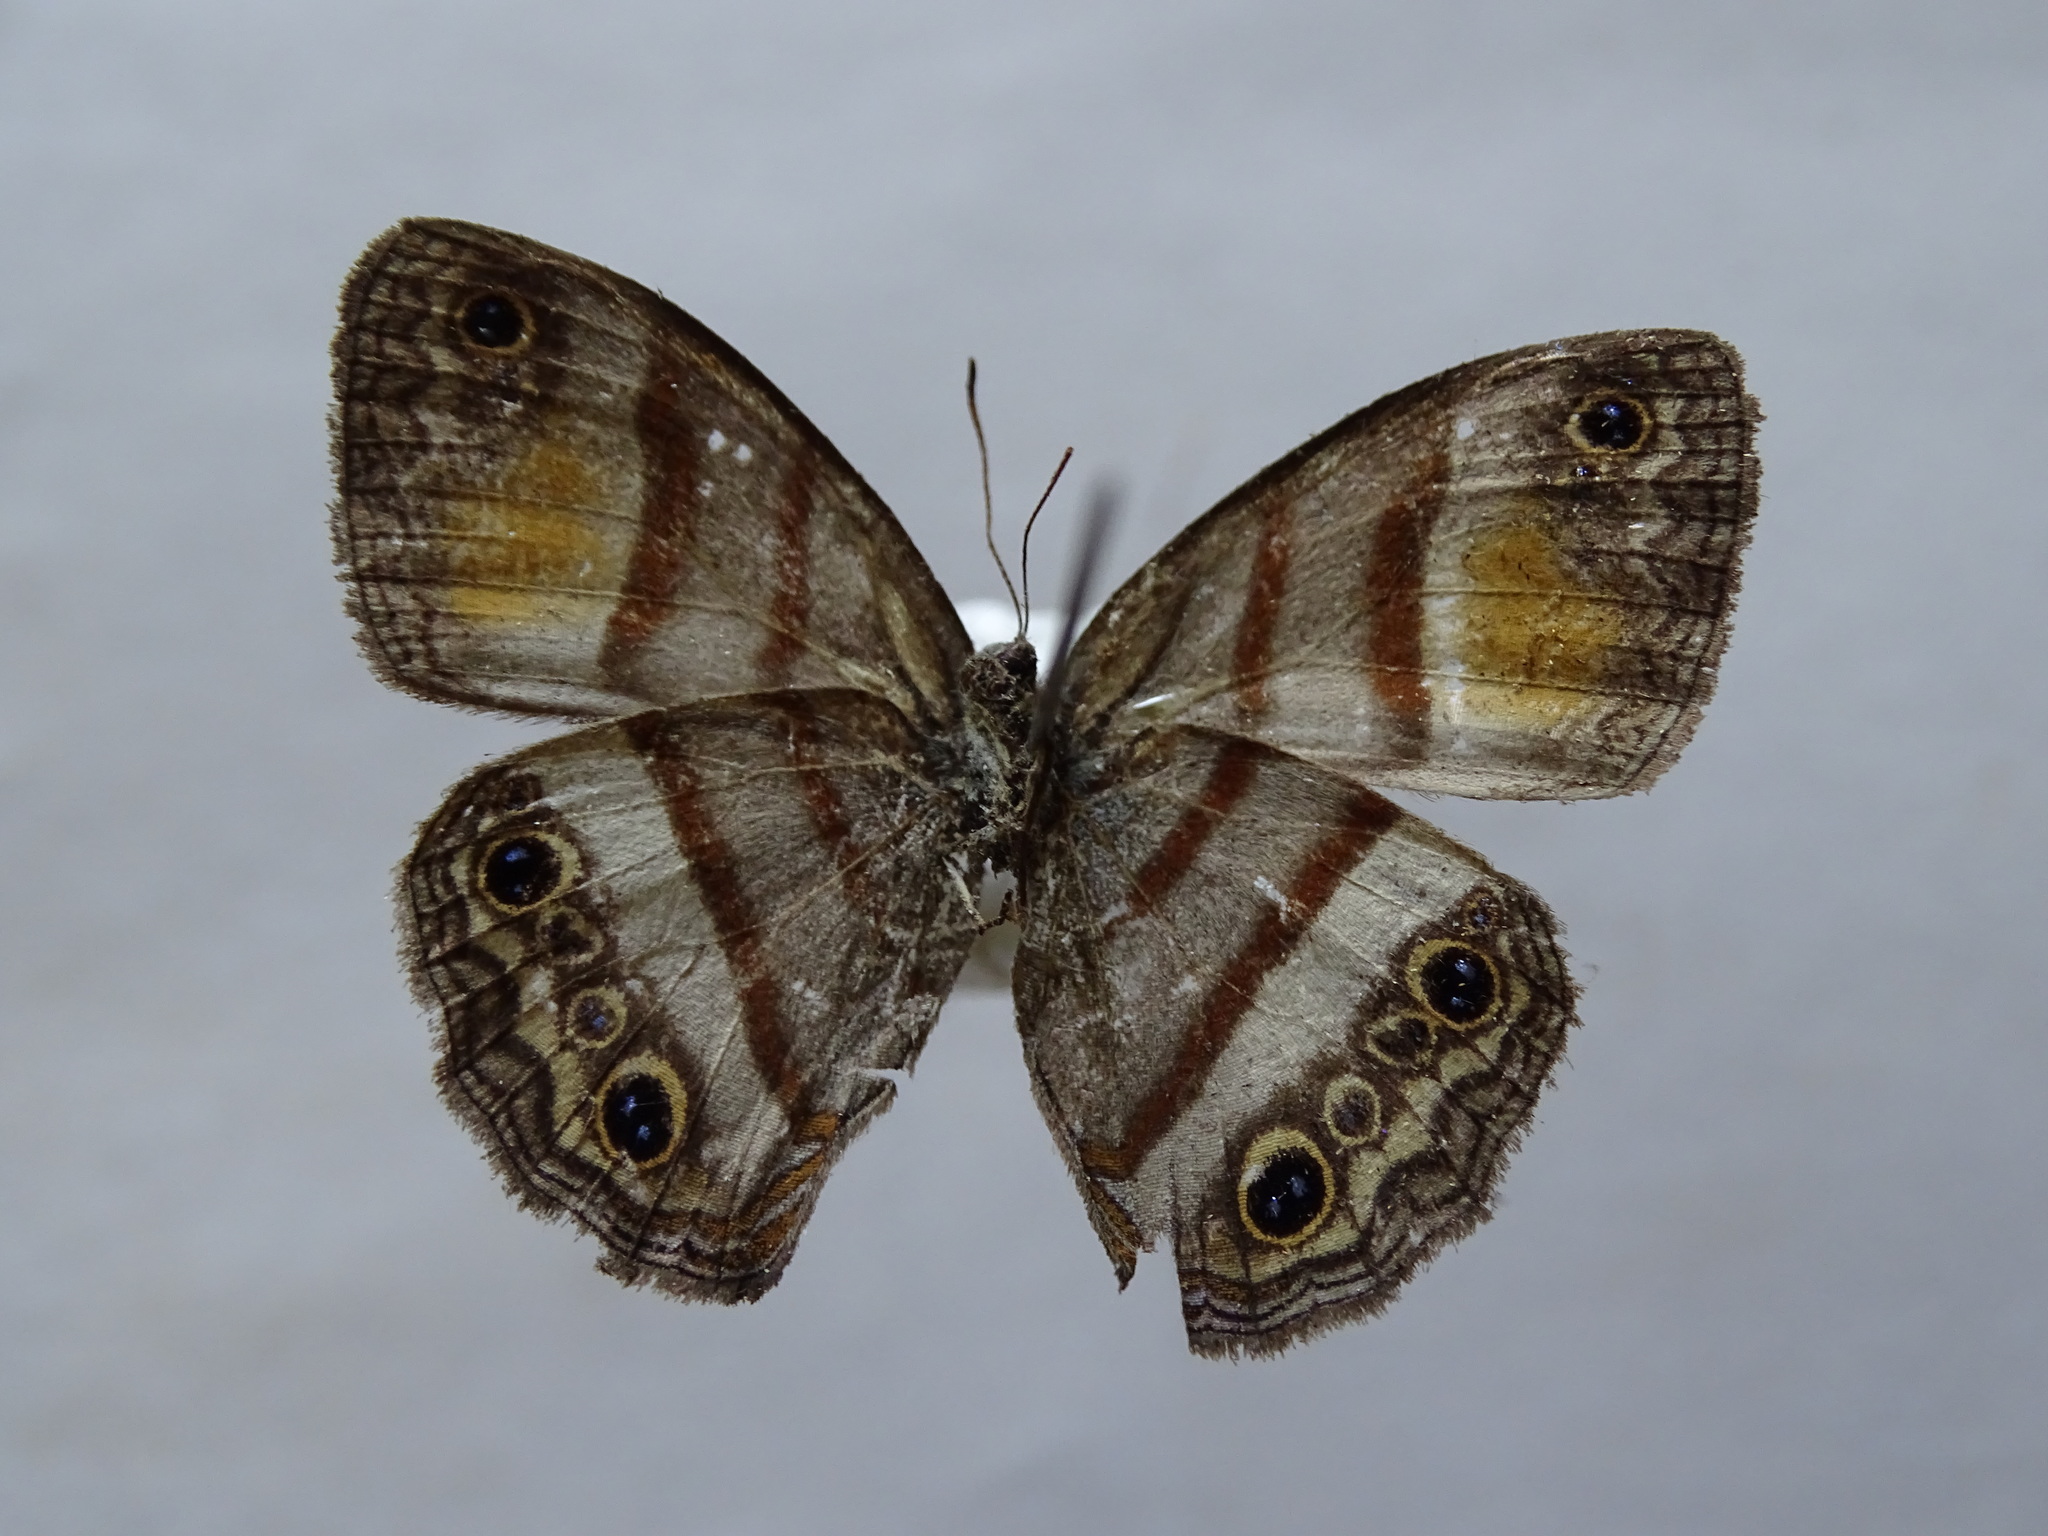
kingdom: Animalia
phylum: Arthropoda
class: Insecta
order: Lepidoptera
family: Nymphalidae
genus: Paryphthimoides
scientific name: Paryphthimoides
